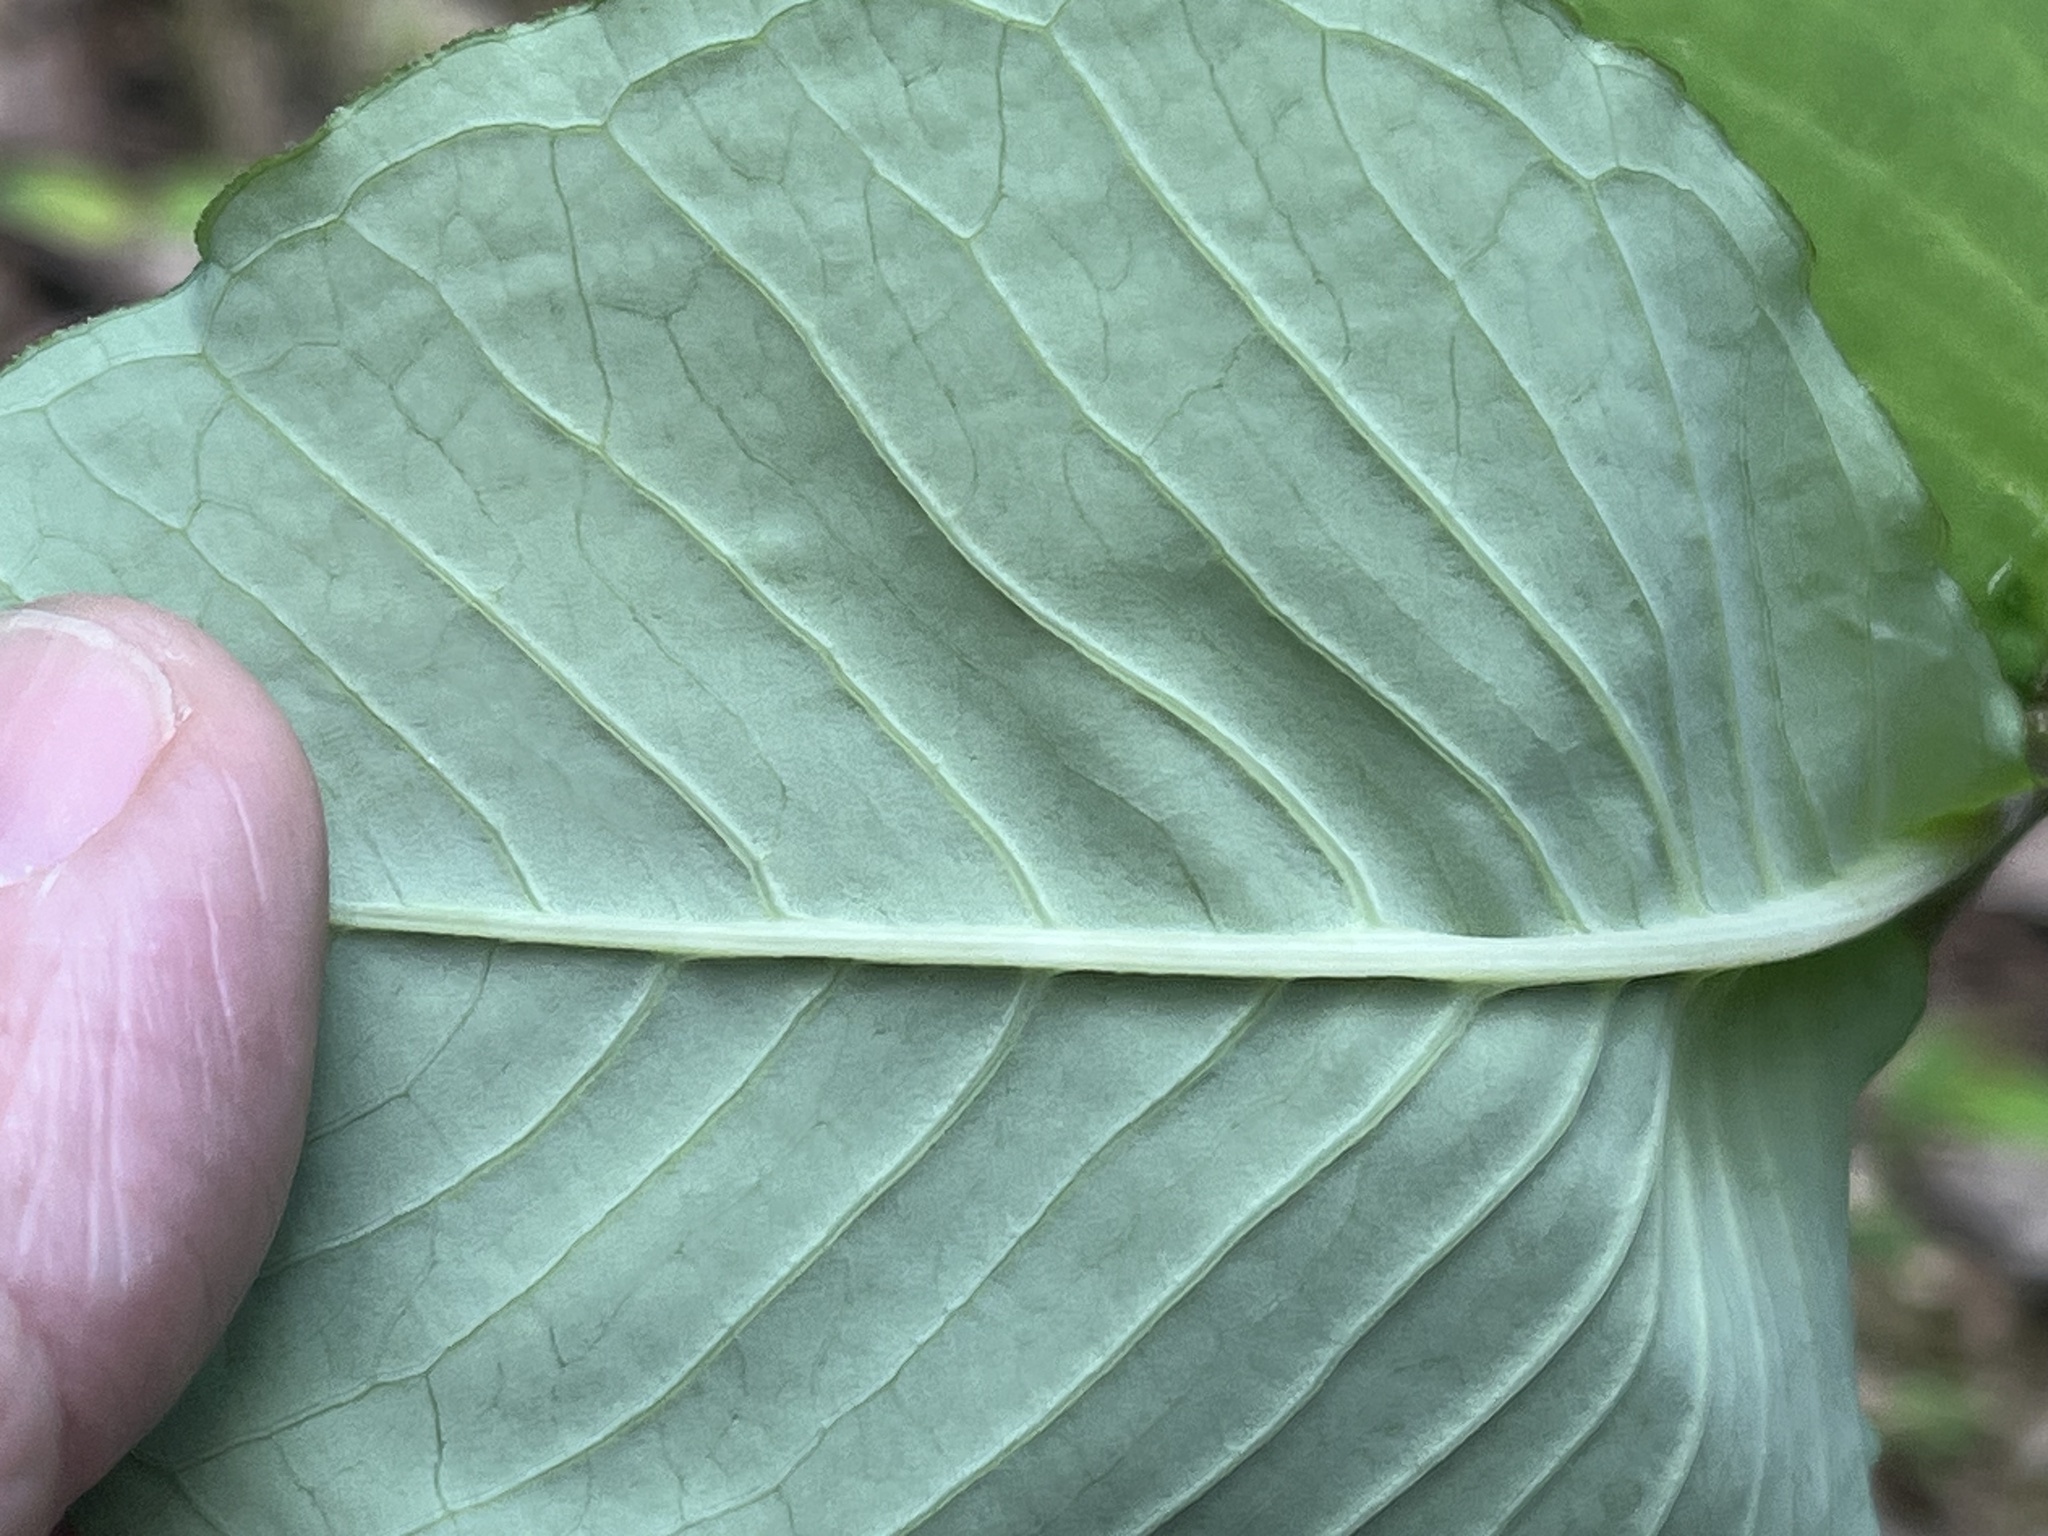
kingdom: Plantae
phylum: Tracheophyta
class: Liliopsida
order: Alismatales
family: Araceae
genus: Arisaema
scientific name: Arisaema triphyllum
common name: Jack-in-the-pulpit
